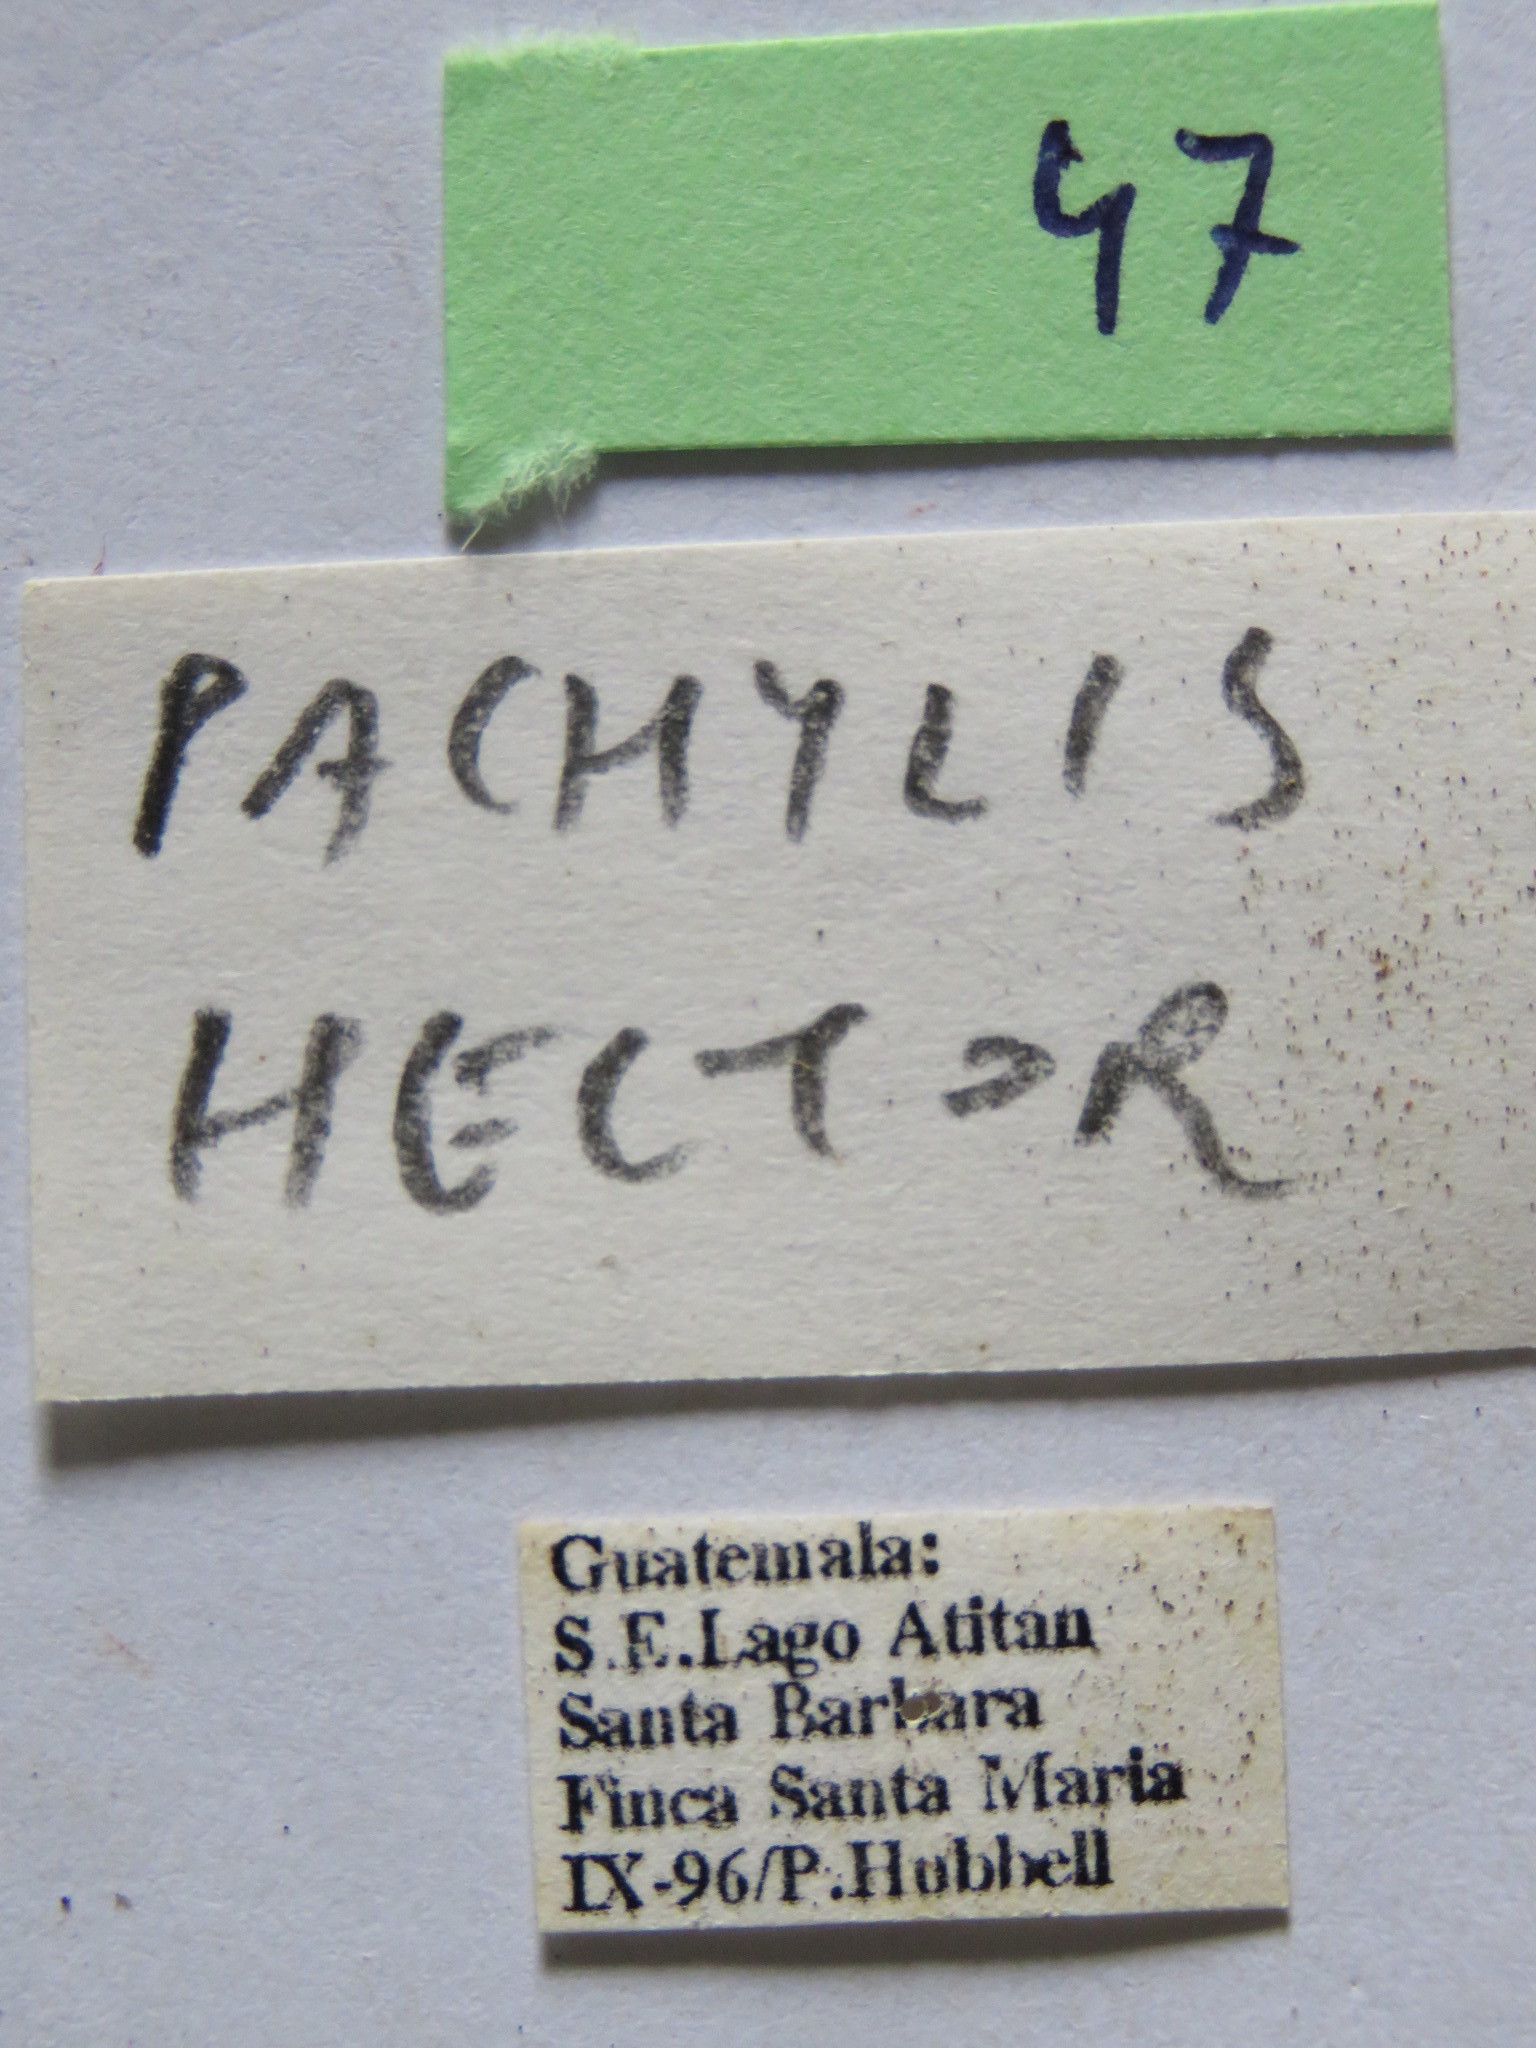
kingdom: Animalia
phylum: Arthropoda
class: Insecta
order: Hemiptera
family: Coreidae
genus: Pachylis
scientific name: Pachylis nervosus
